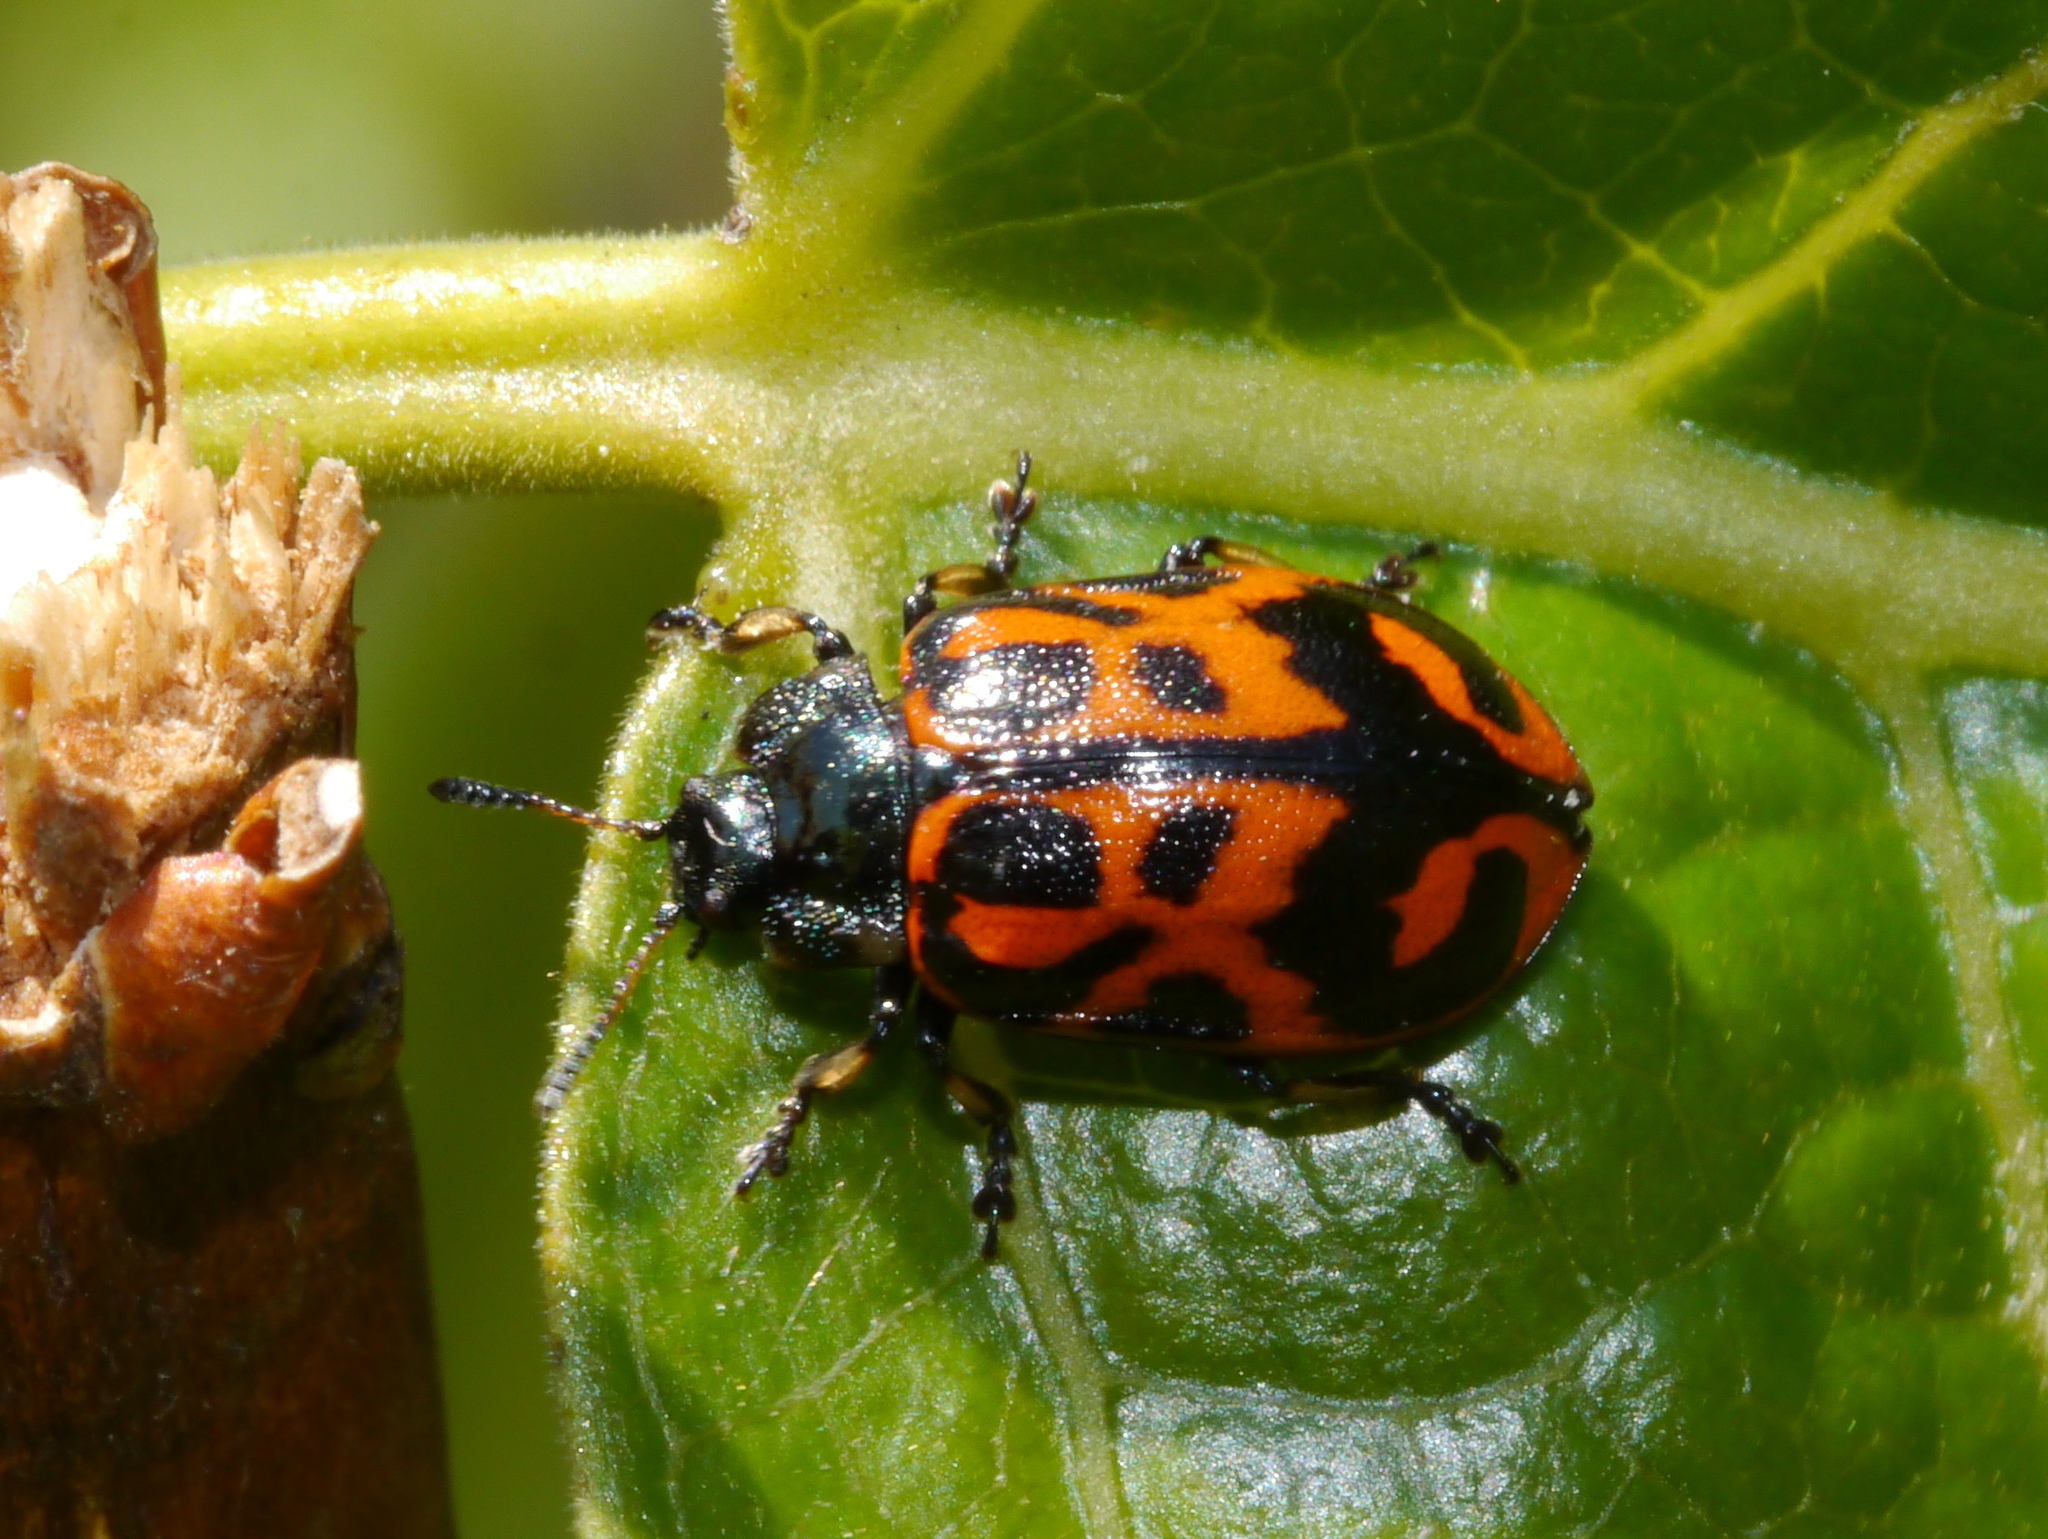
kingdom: Animalia
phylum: Arthropoda
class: Insecta
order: Coleoptera
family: Chrysomelidae
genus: Chrysomela
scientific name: Chrysomela falsa
